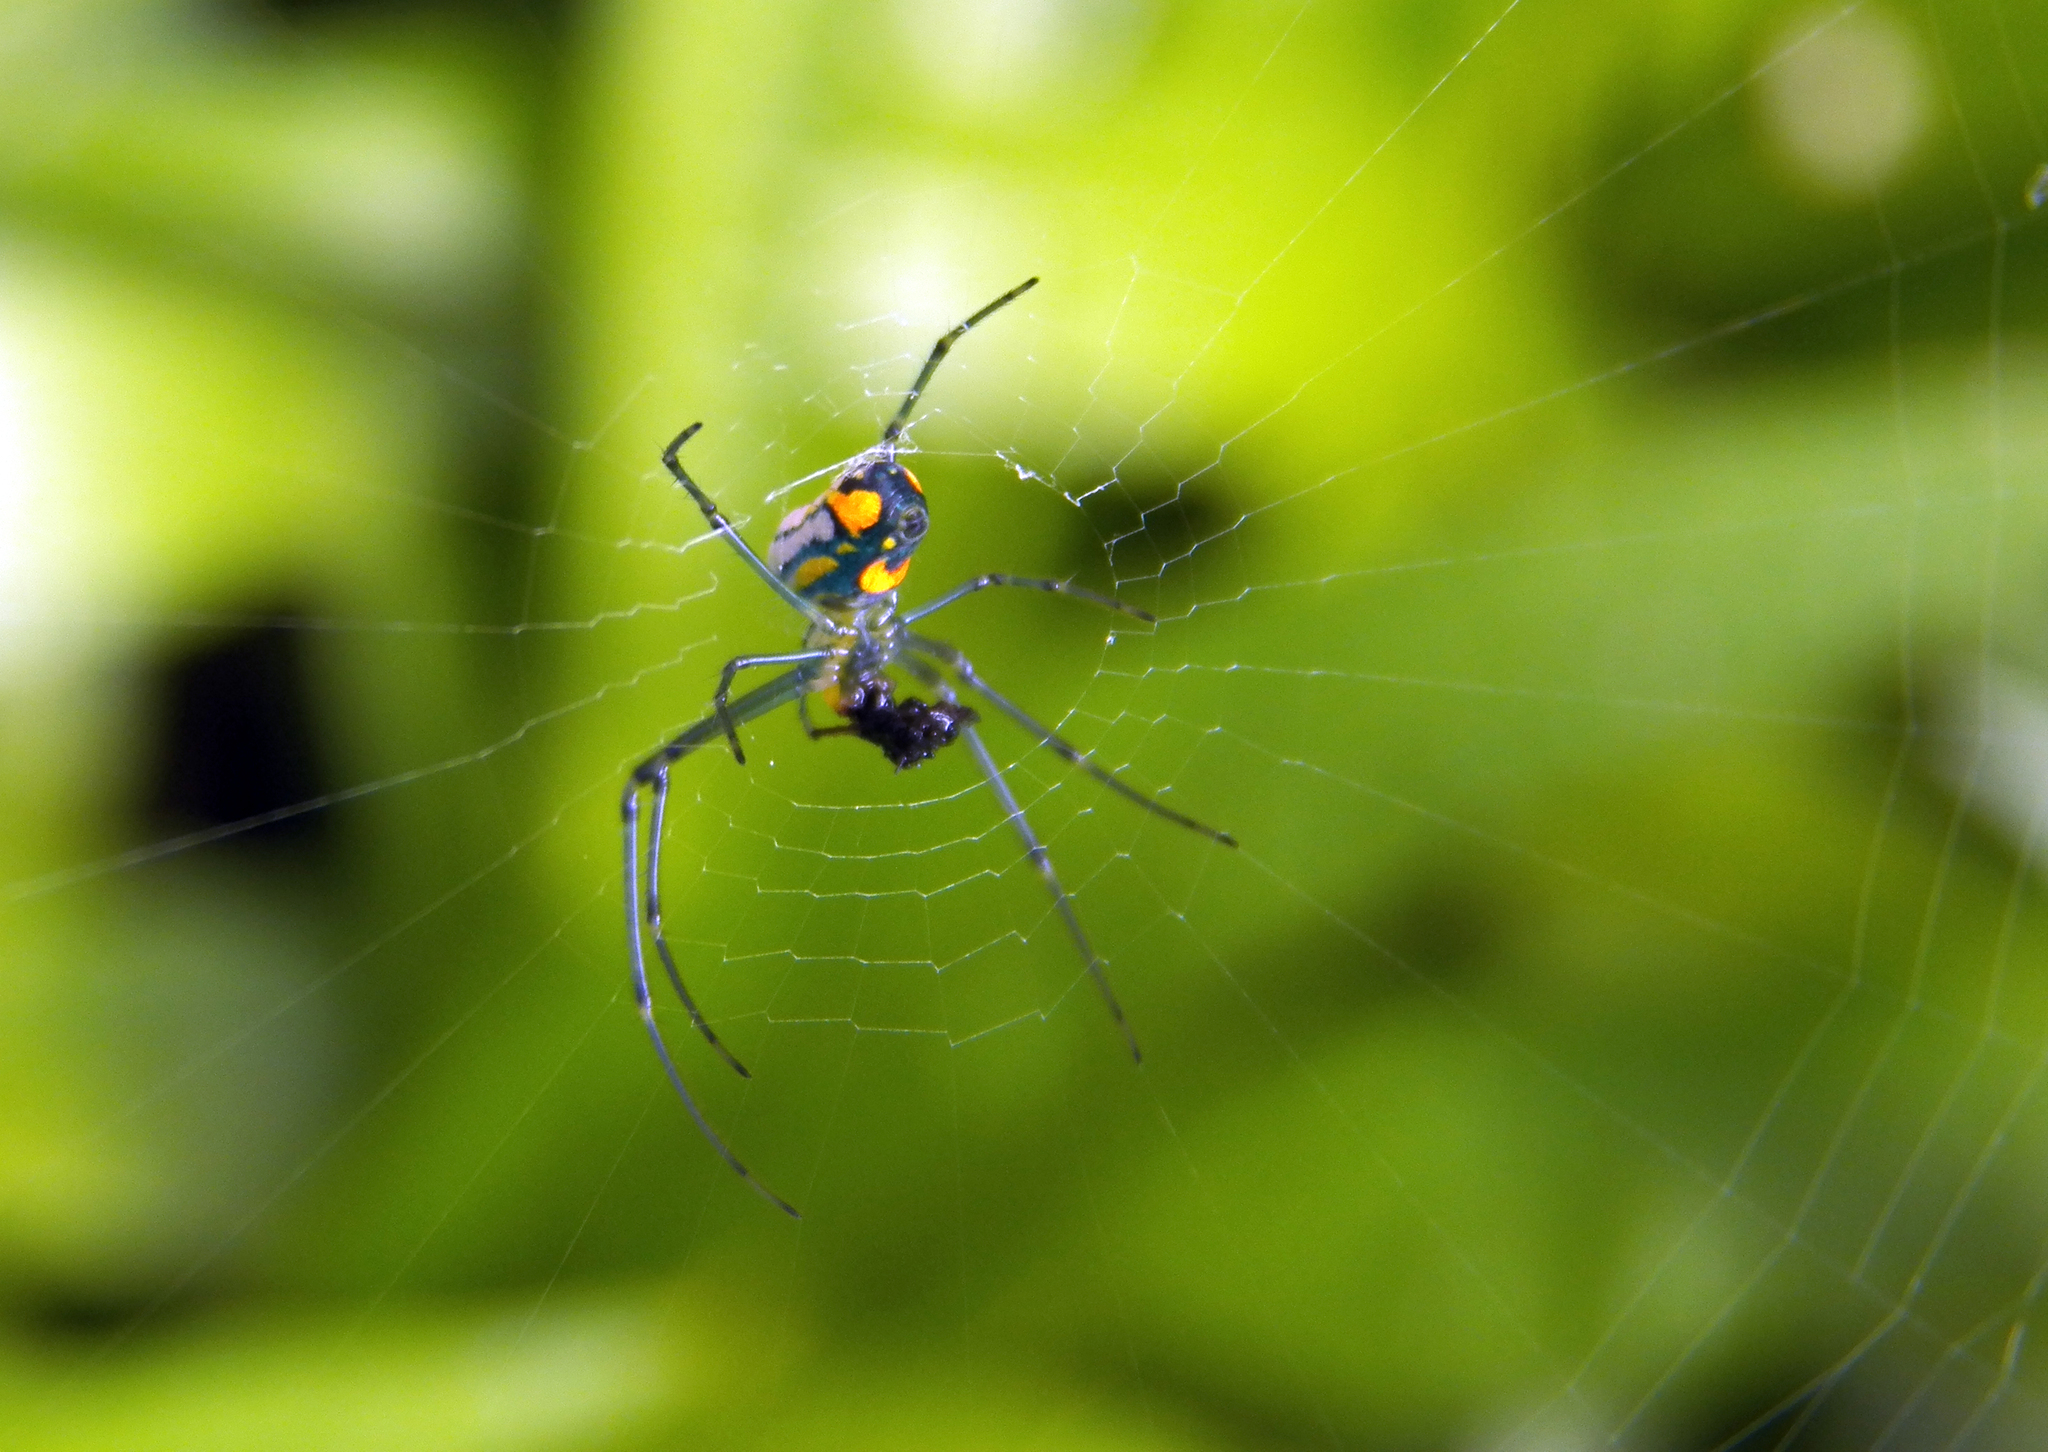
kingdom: Animalia
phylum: Arthropoda
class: Arachnida
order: Araneae
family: Tetragnathidae
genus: Leucauge
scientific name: Leucauge argyrobapta
